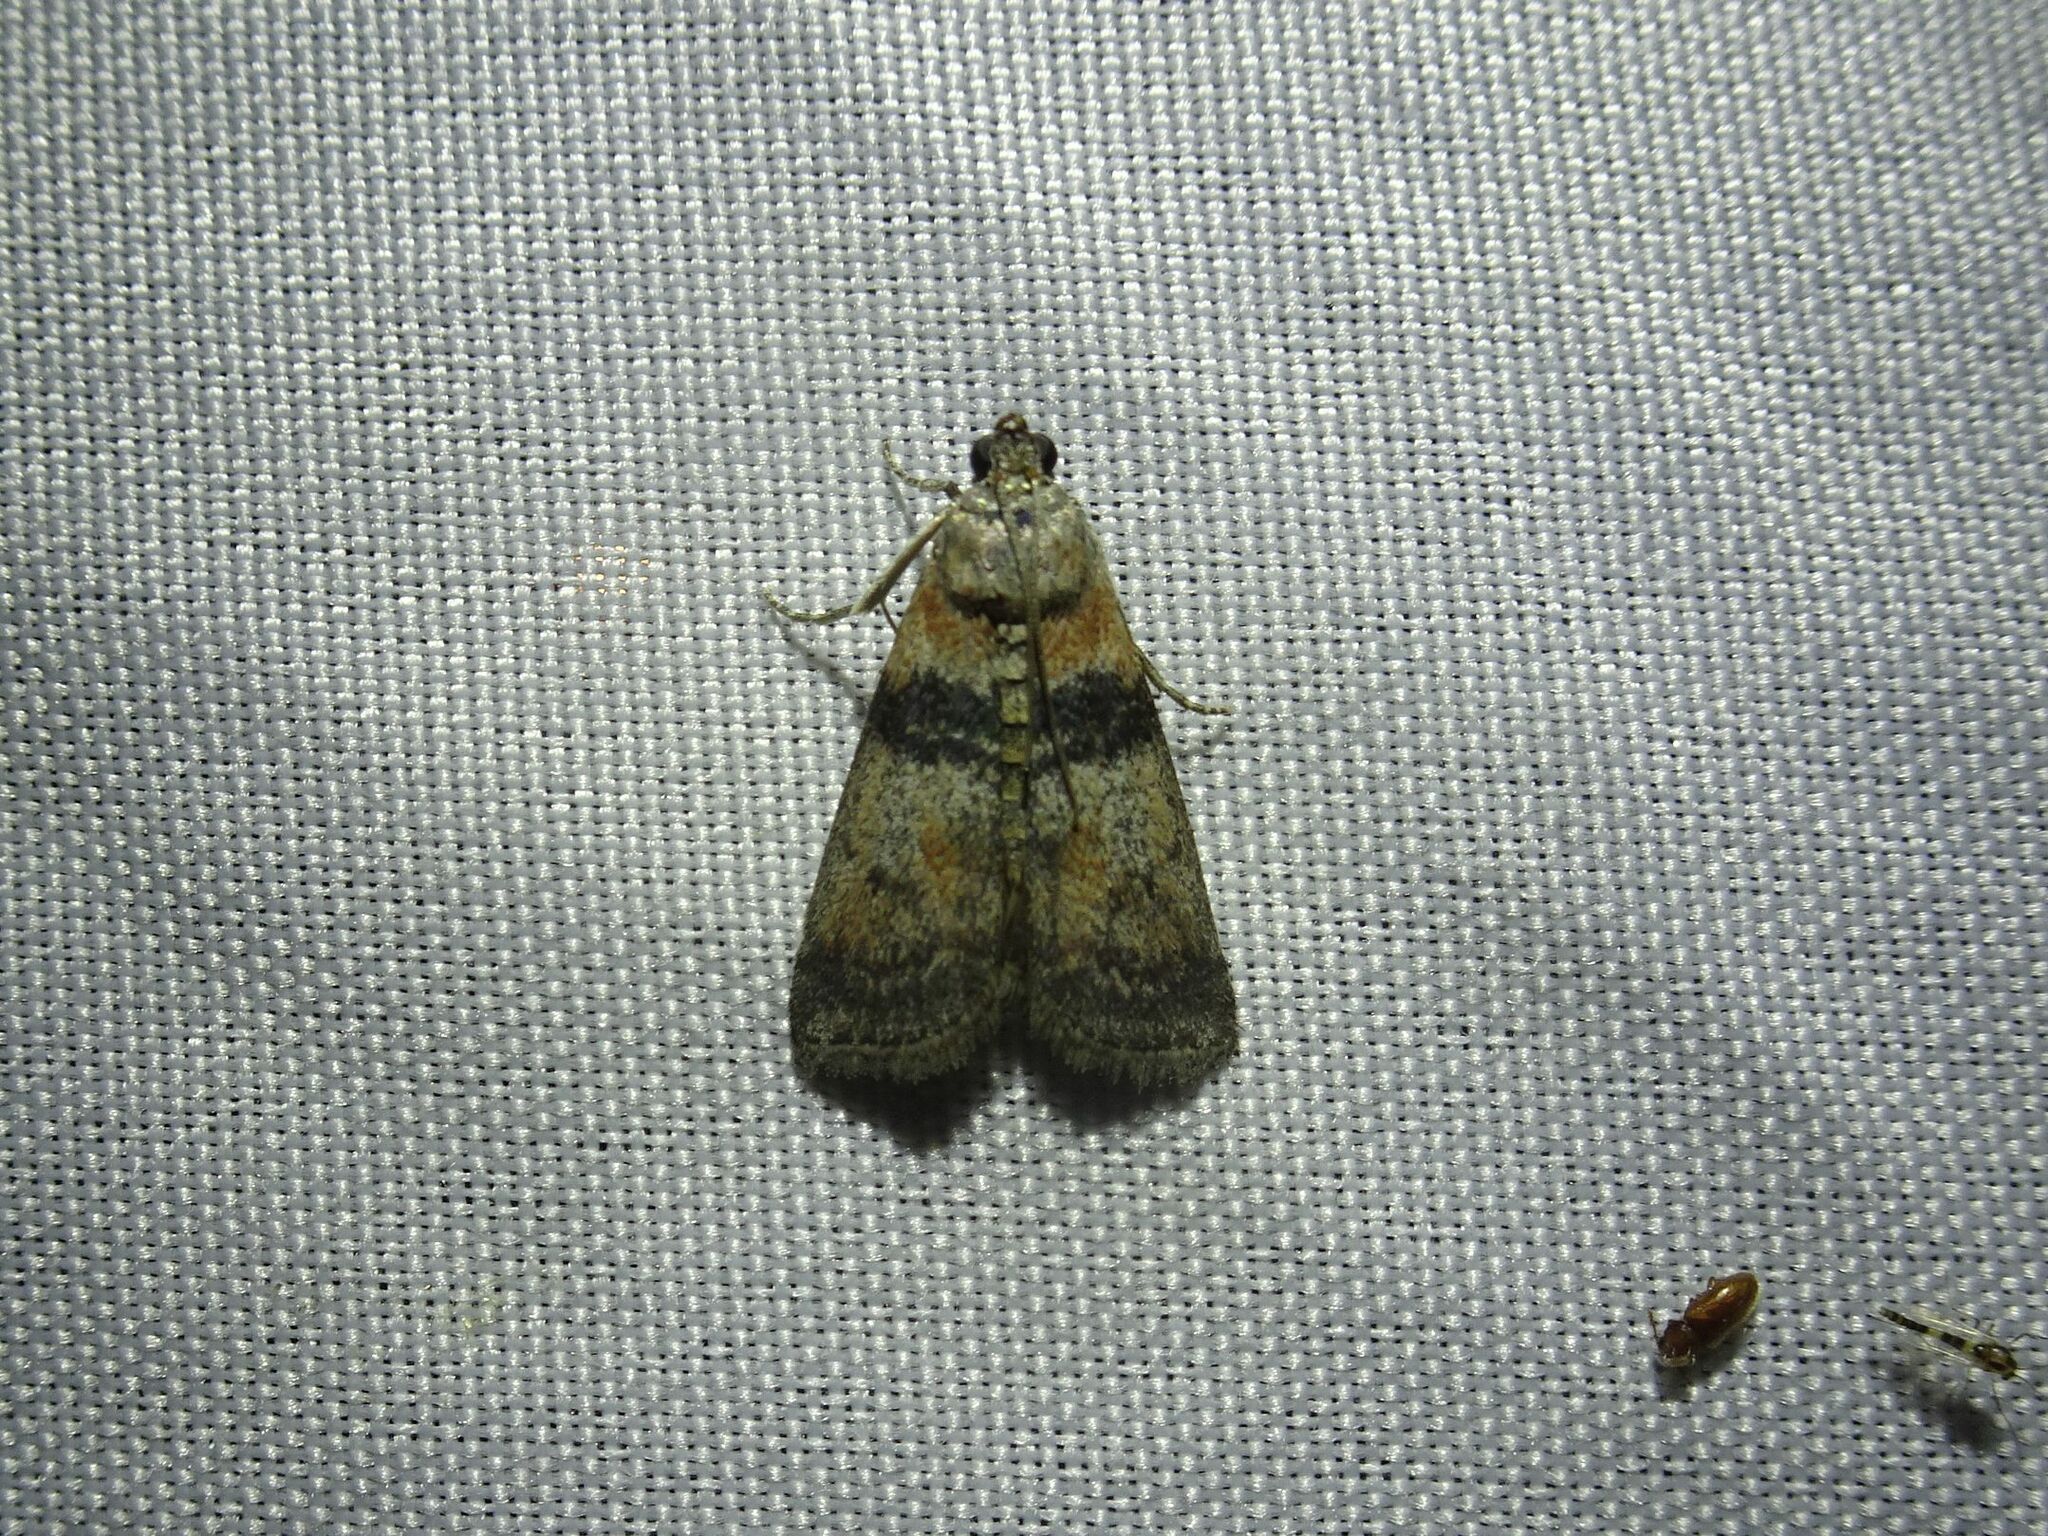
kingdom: Animalia
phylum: Arthropoda
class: Insecta
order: Lepidoptera
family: Pyralidae
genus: Sciota
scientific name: Sciota rhenella
